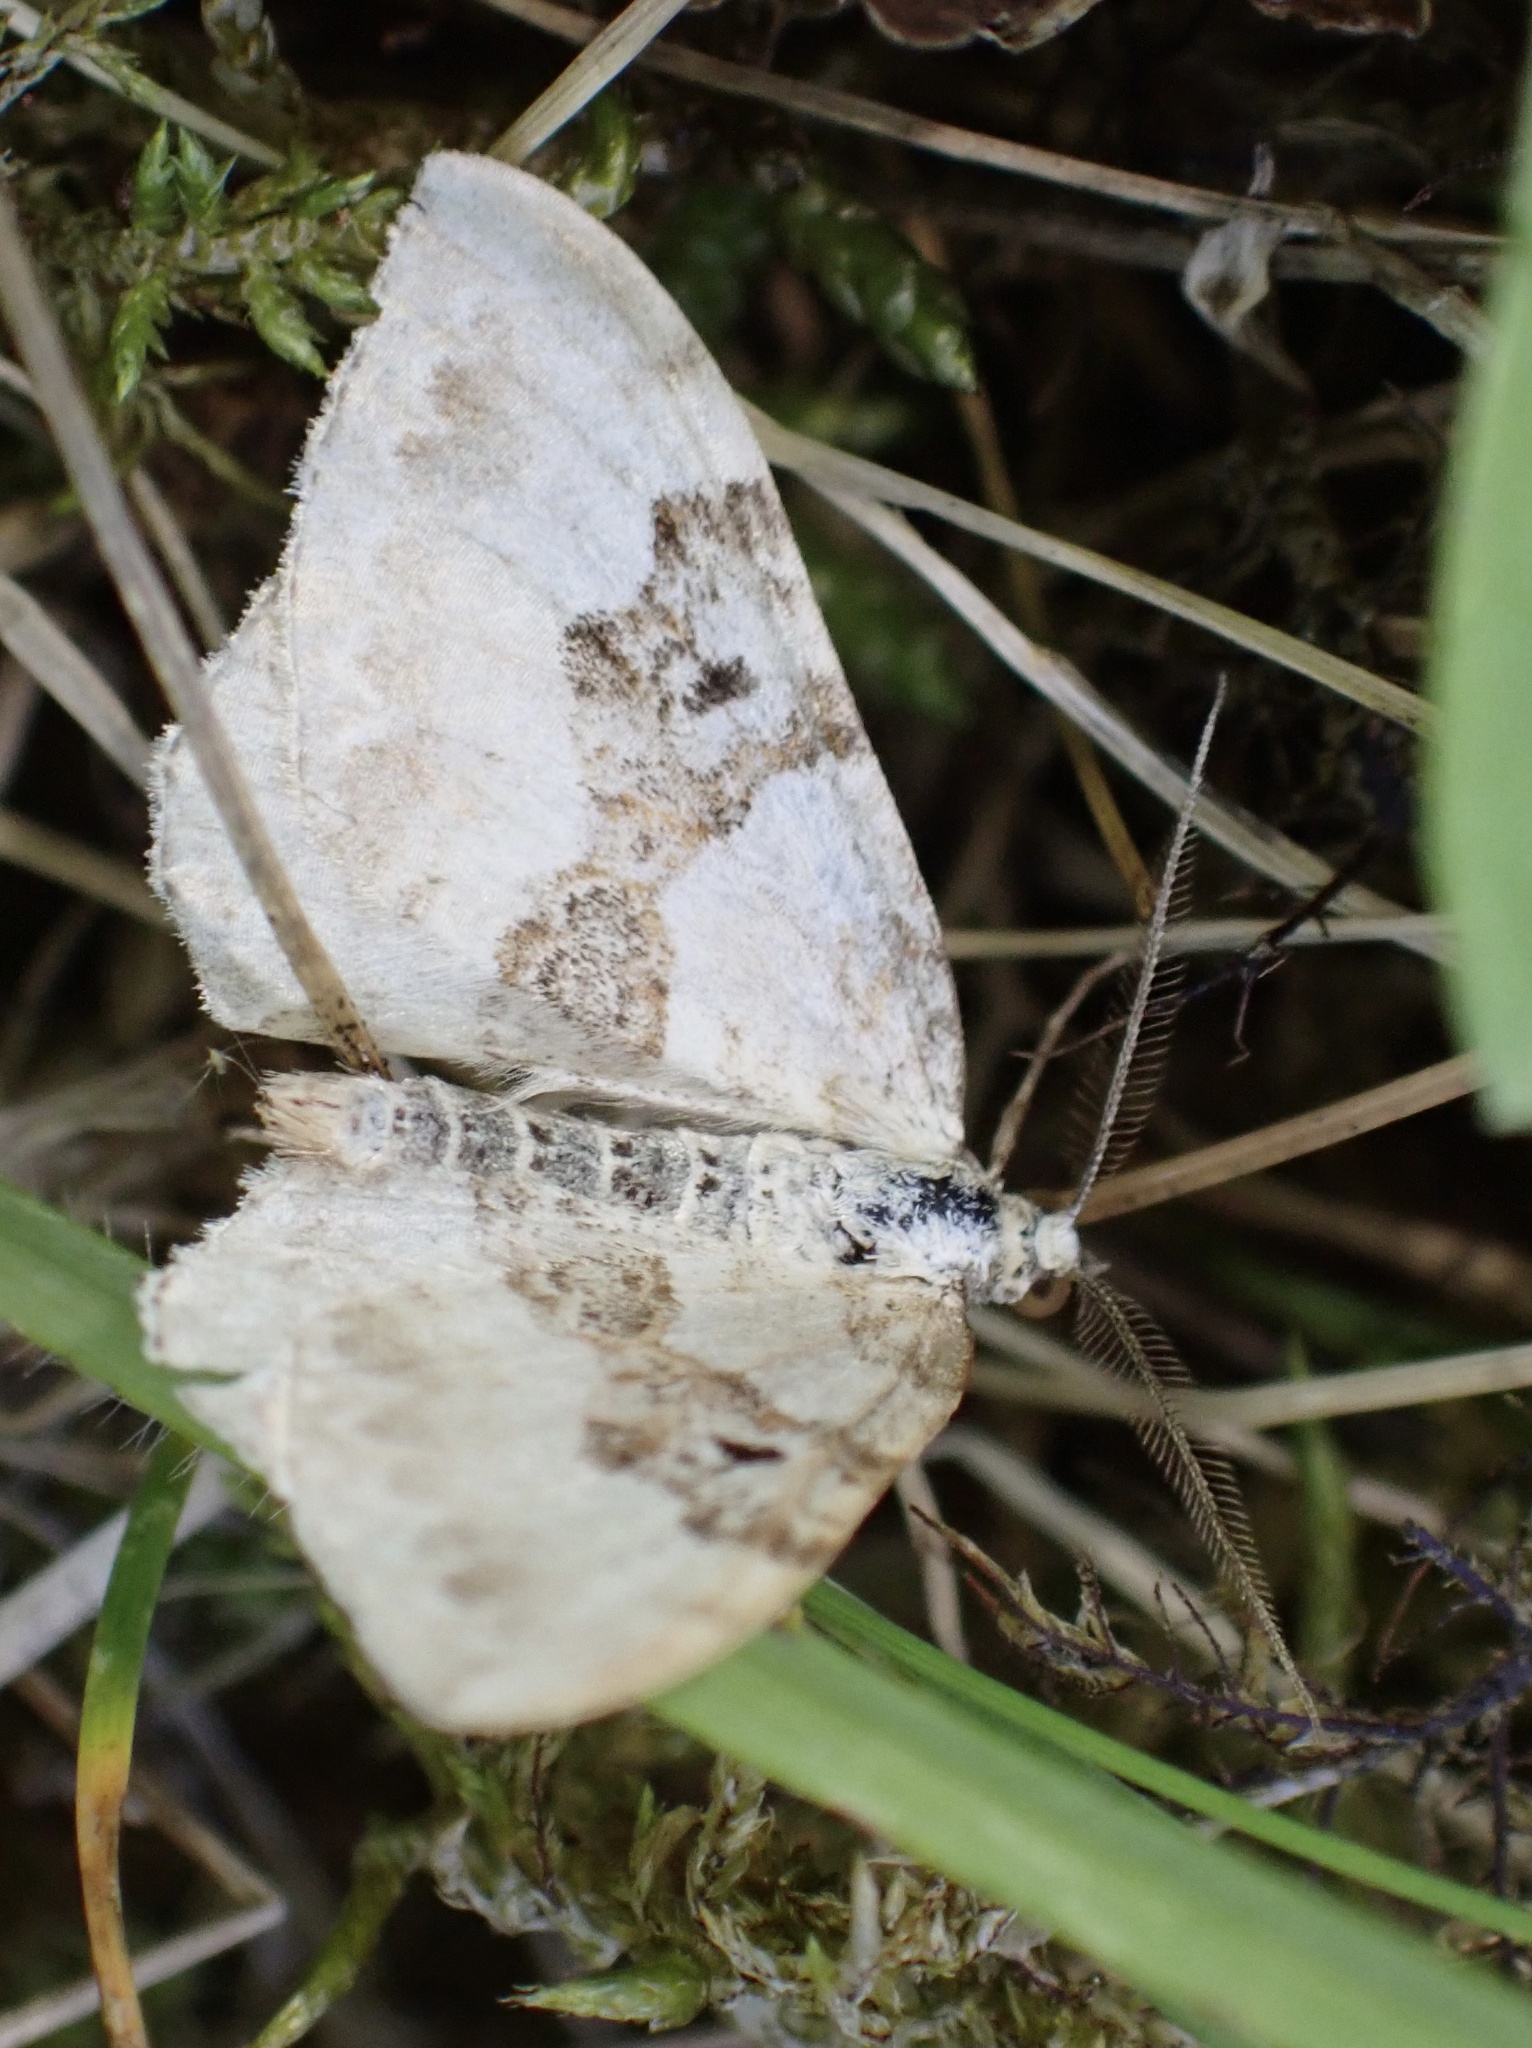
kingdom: Animalia
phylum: Arthropoda
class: Insecta
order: Lepidoptera
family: Geometridae
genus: Xanthorhoe
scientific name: Xanthorhoe montanata
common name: Silver-ground carpet
